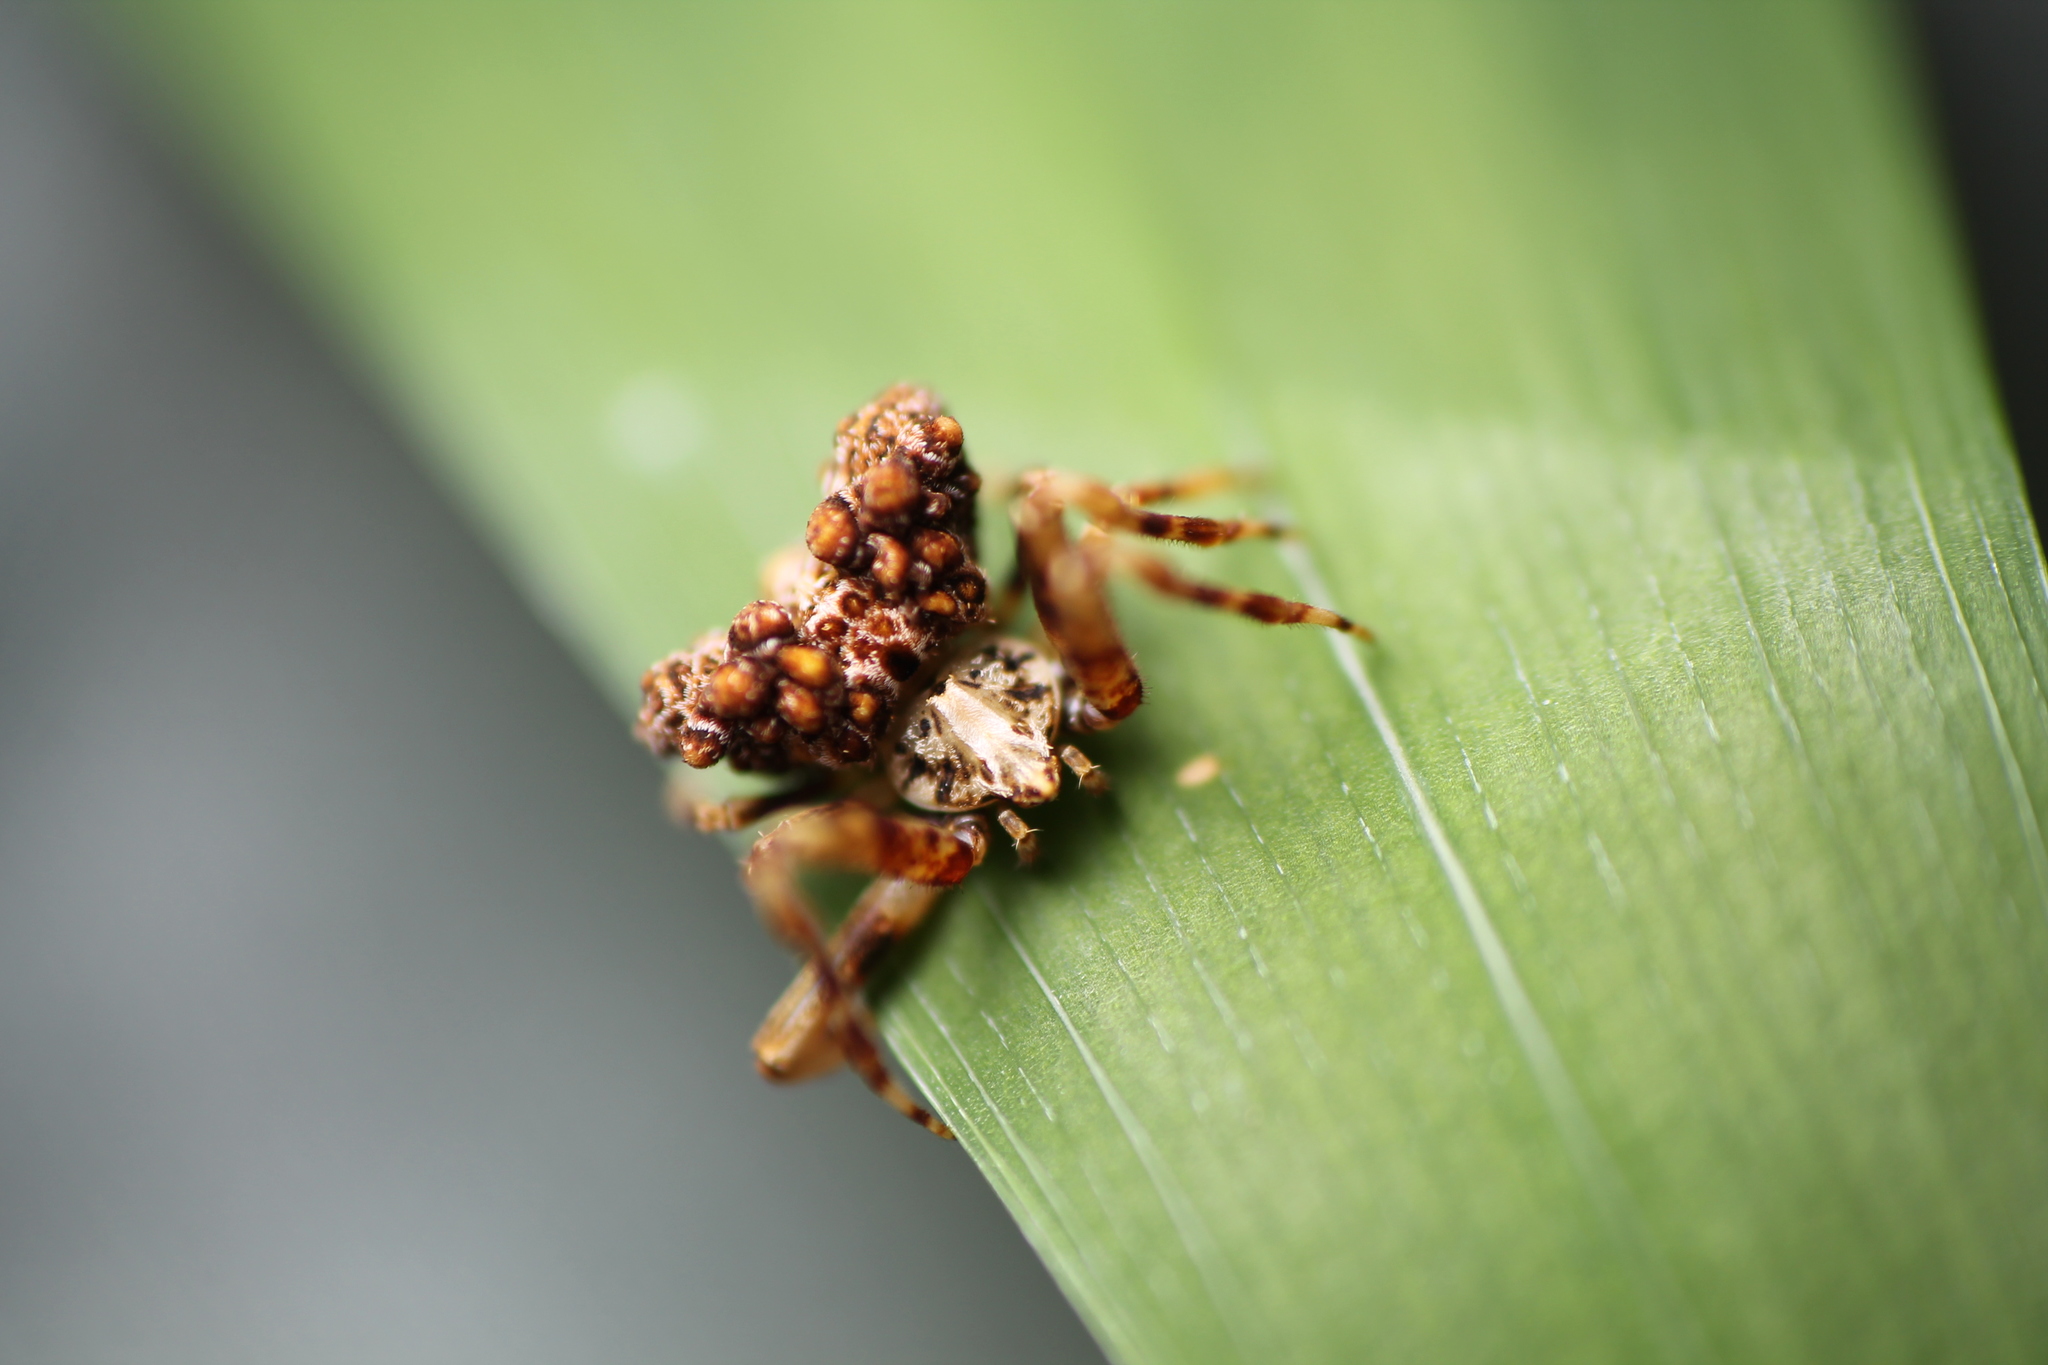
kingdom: Animalia
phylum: Arthropoda
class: Arachnida
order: Araneae
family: Araneidae
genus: Celaenia
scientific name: Celaenia tuberosa
